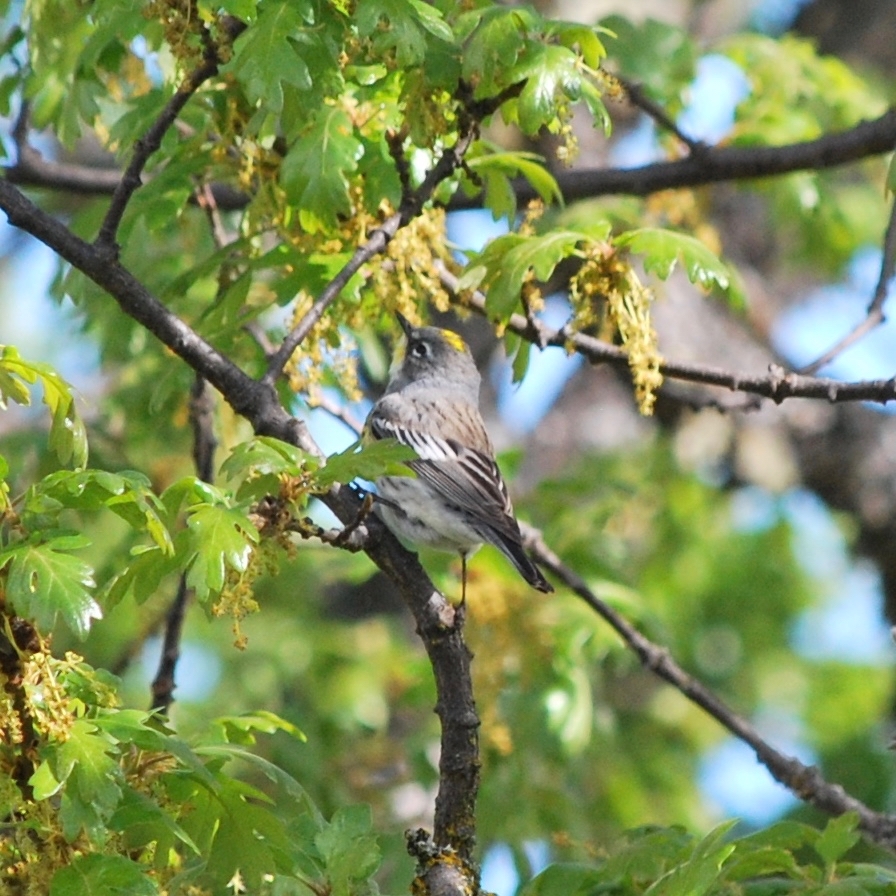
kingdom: Animalia
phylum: Chordata
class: Aves
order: Passeriformes
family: Parulidae
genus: Setophaga
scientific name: Setophaga
